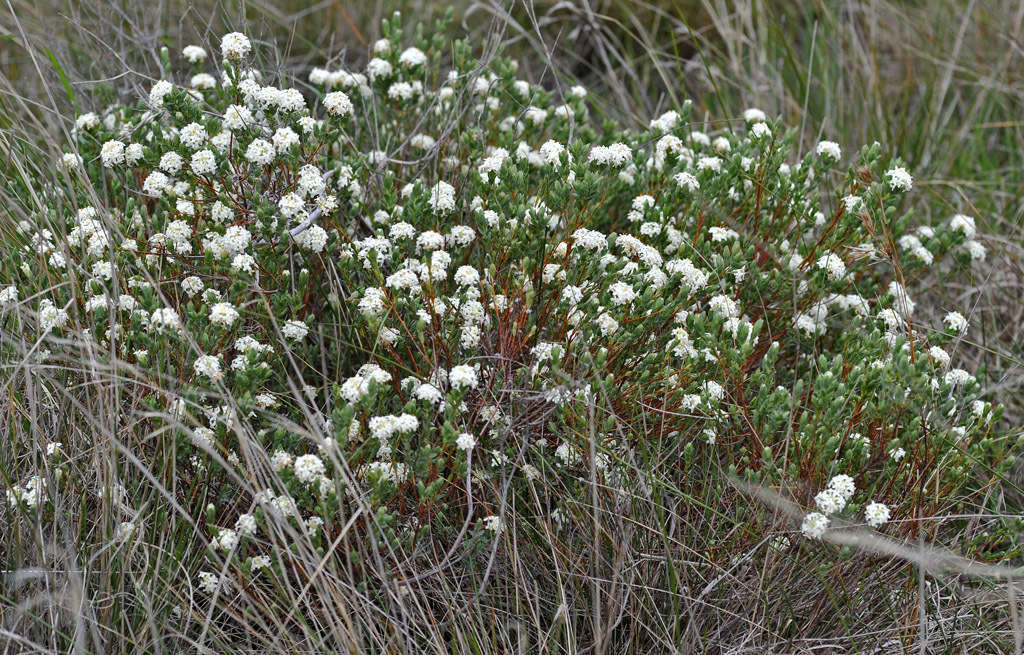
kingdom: Plantae
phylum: Tracheophyta
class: Magnoliopsida
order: Malvales
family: Thymelaeaceae
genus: Pimelea
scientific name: Pimelea glauca
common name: Smooth riceflower
